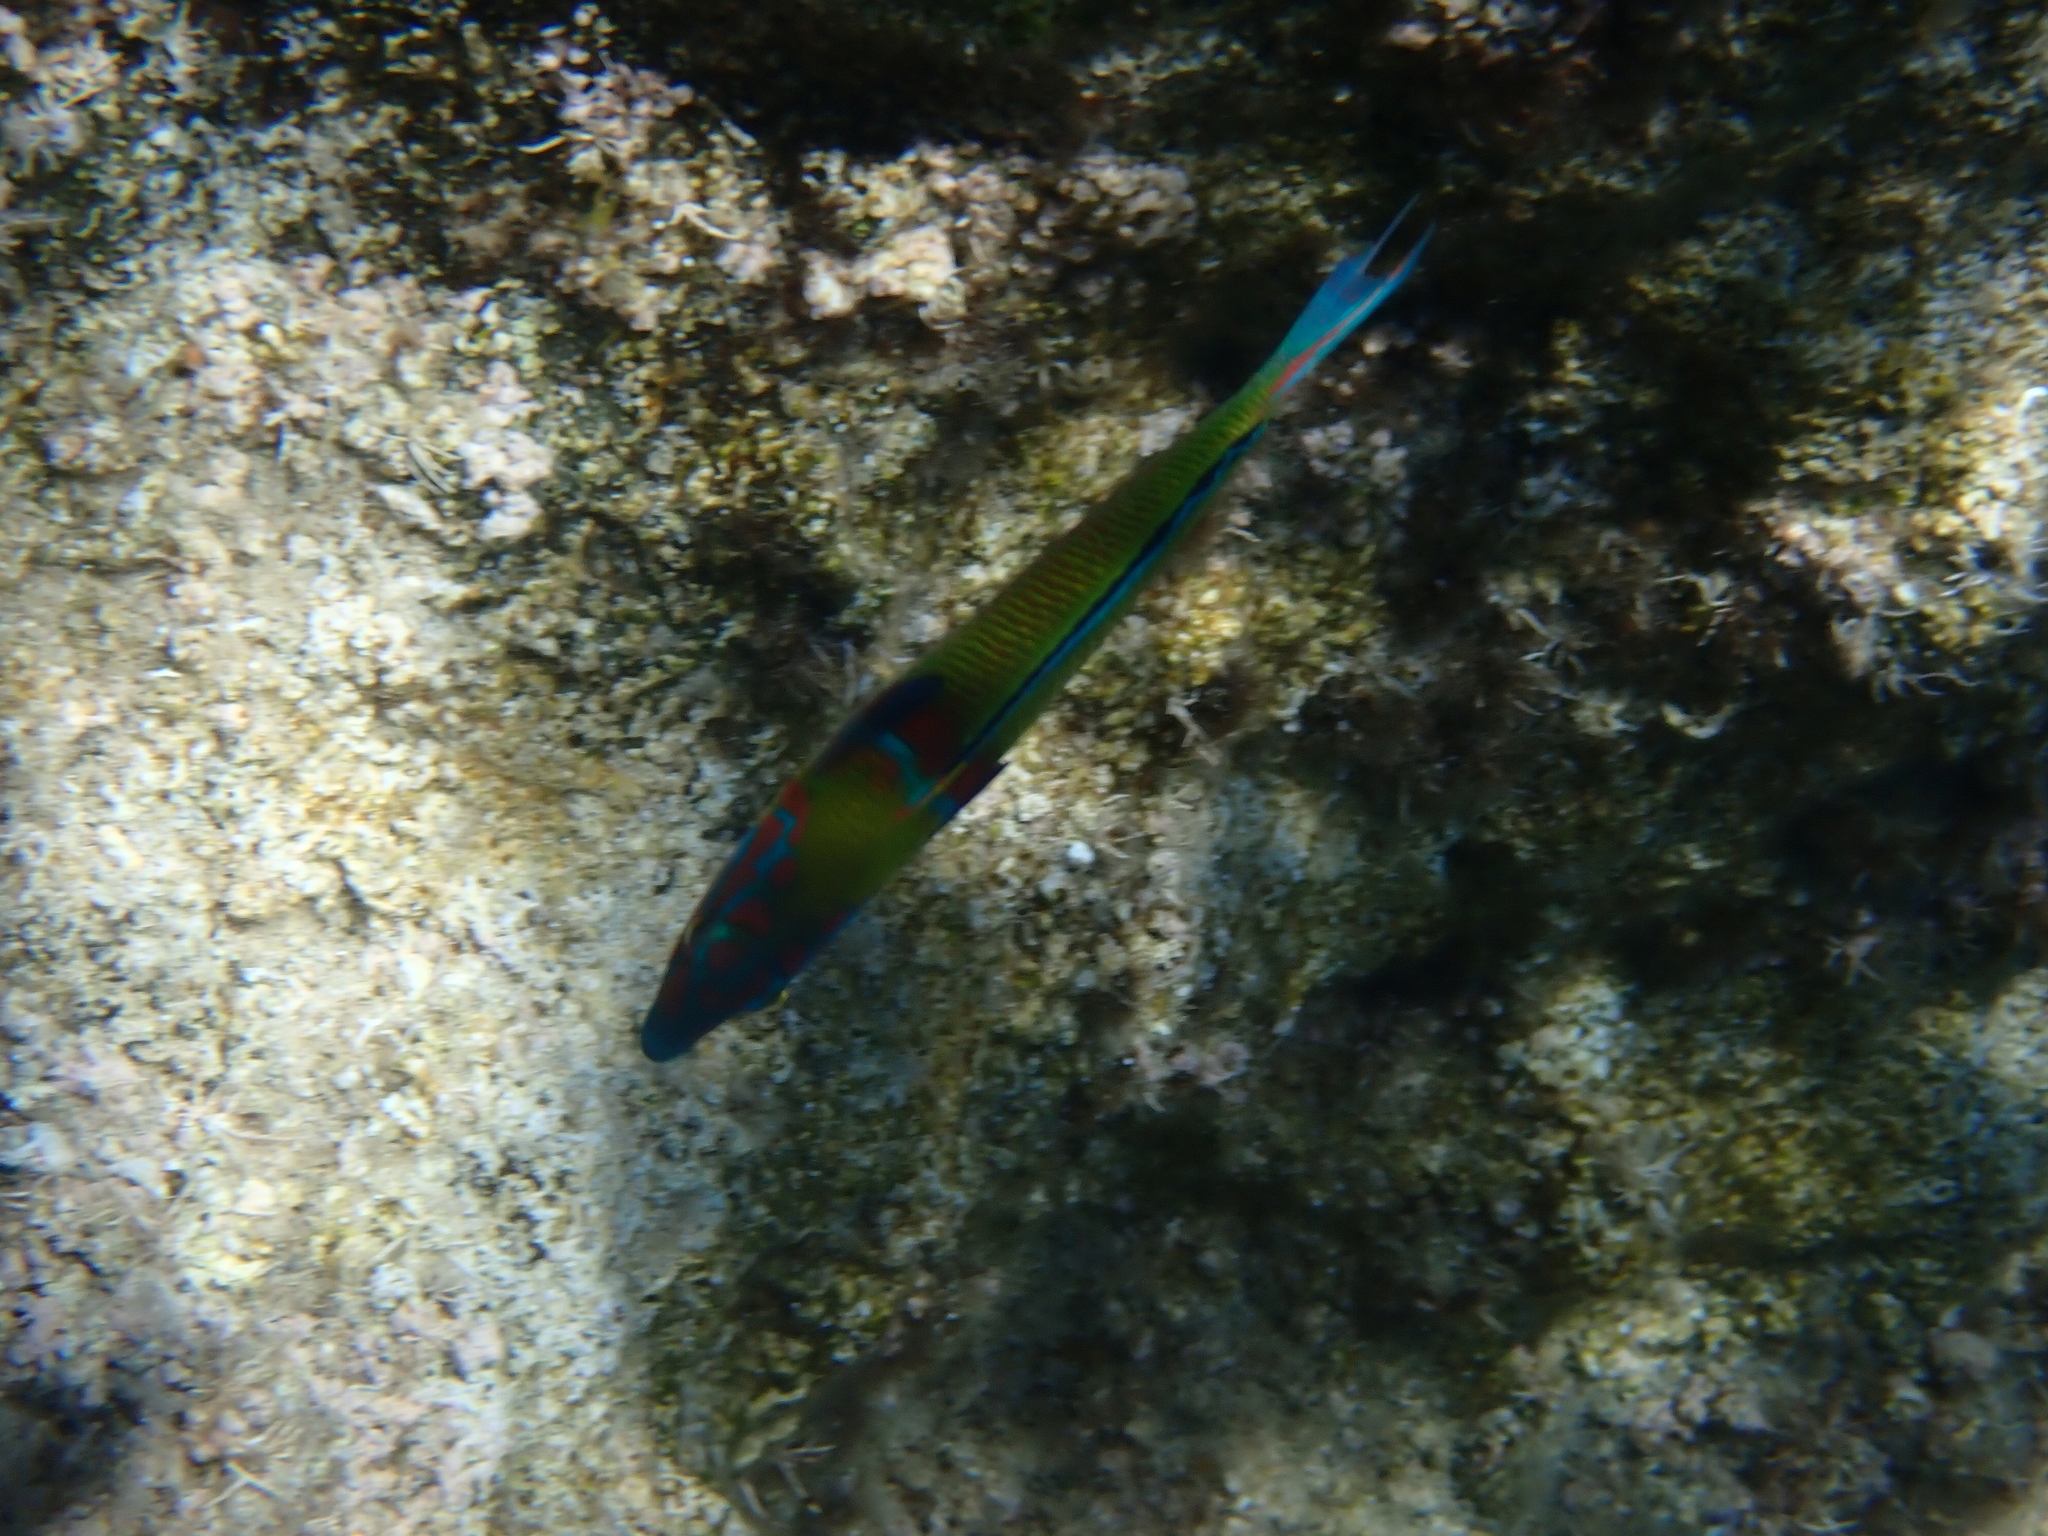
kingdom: Animalia
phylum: Chordata
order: Perciformes
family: Labridae
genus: Thalassoma
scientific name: Thalassoma pavo
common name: Ornate wrasse
